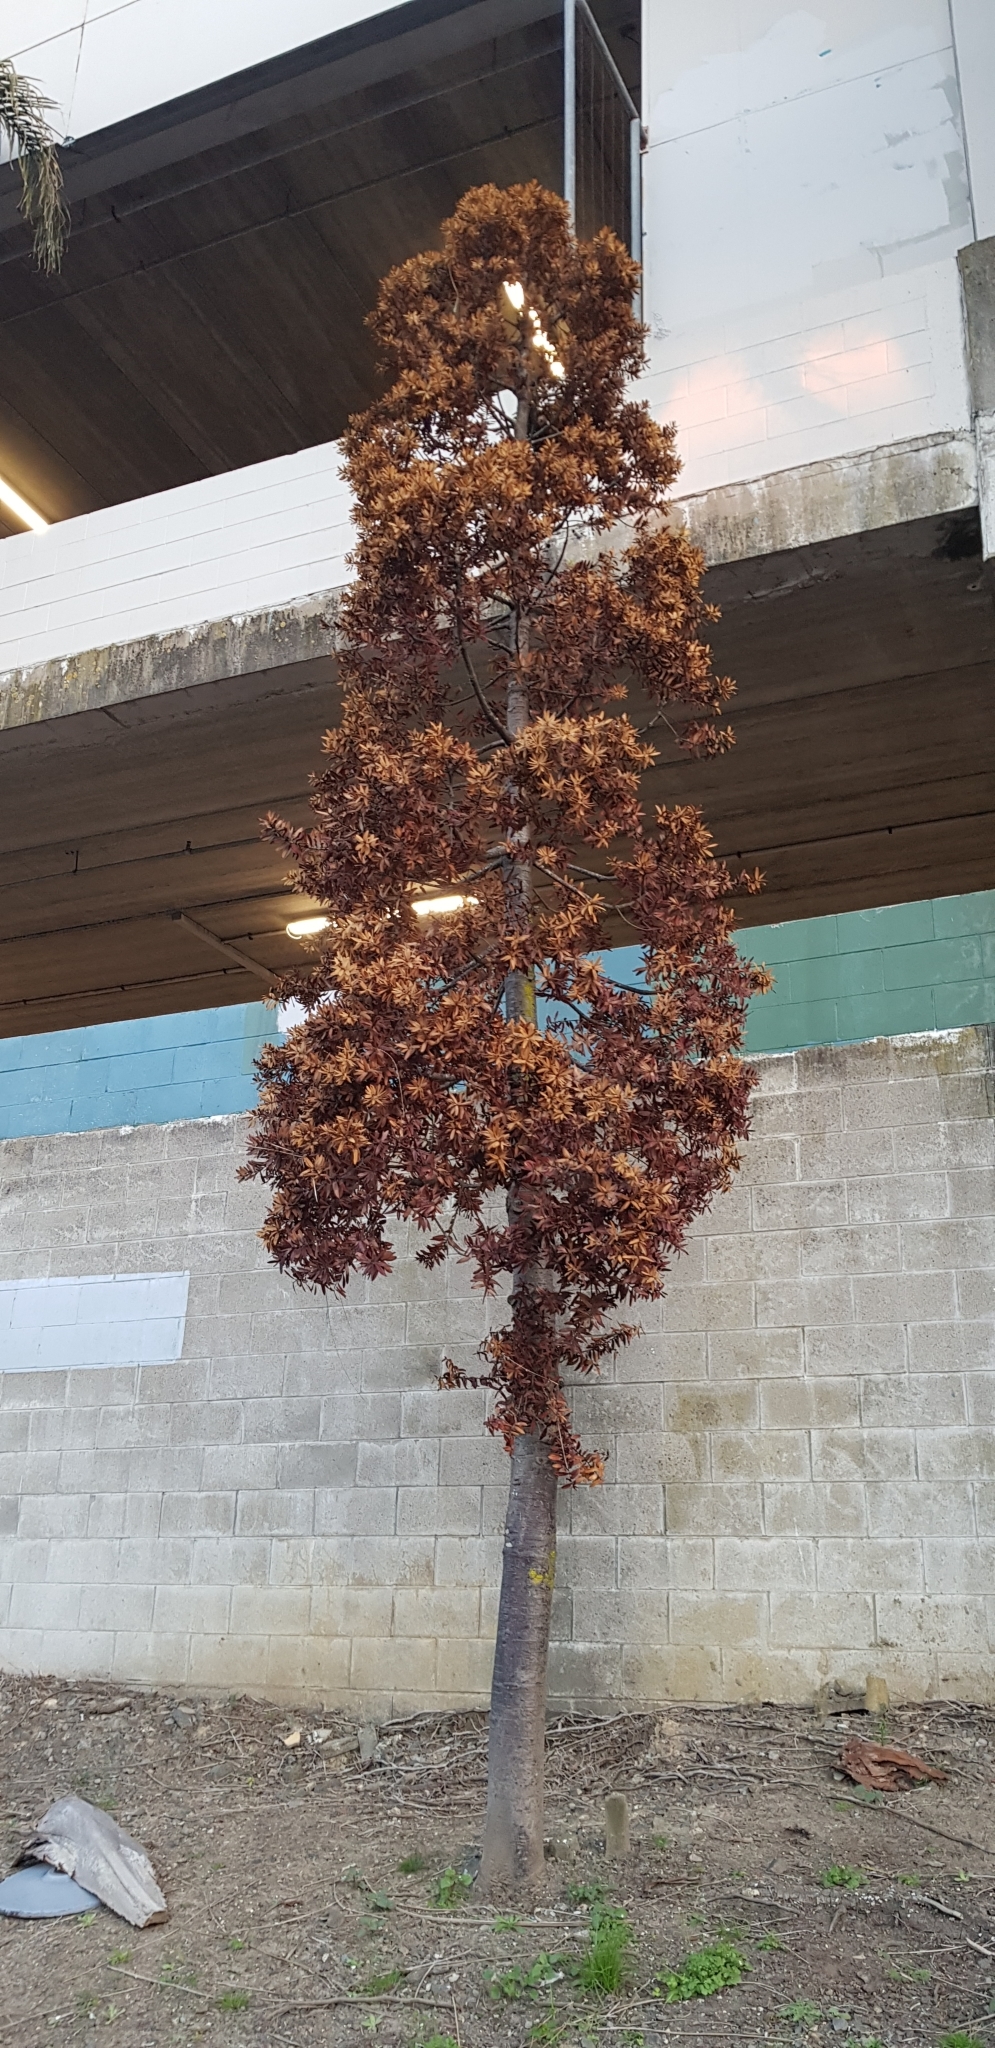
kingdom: Plantae
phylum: Tracheophyta
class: Pinopsida
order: Pinales
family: Araucariaceae
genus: Agathis
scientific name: Agathis australis
